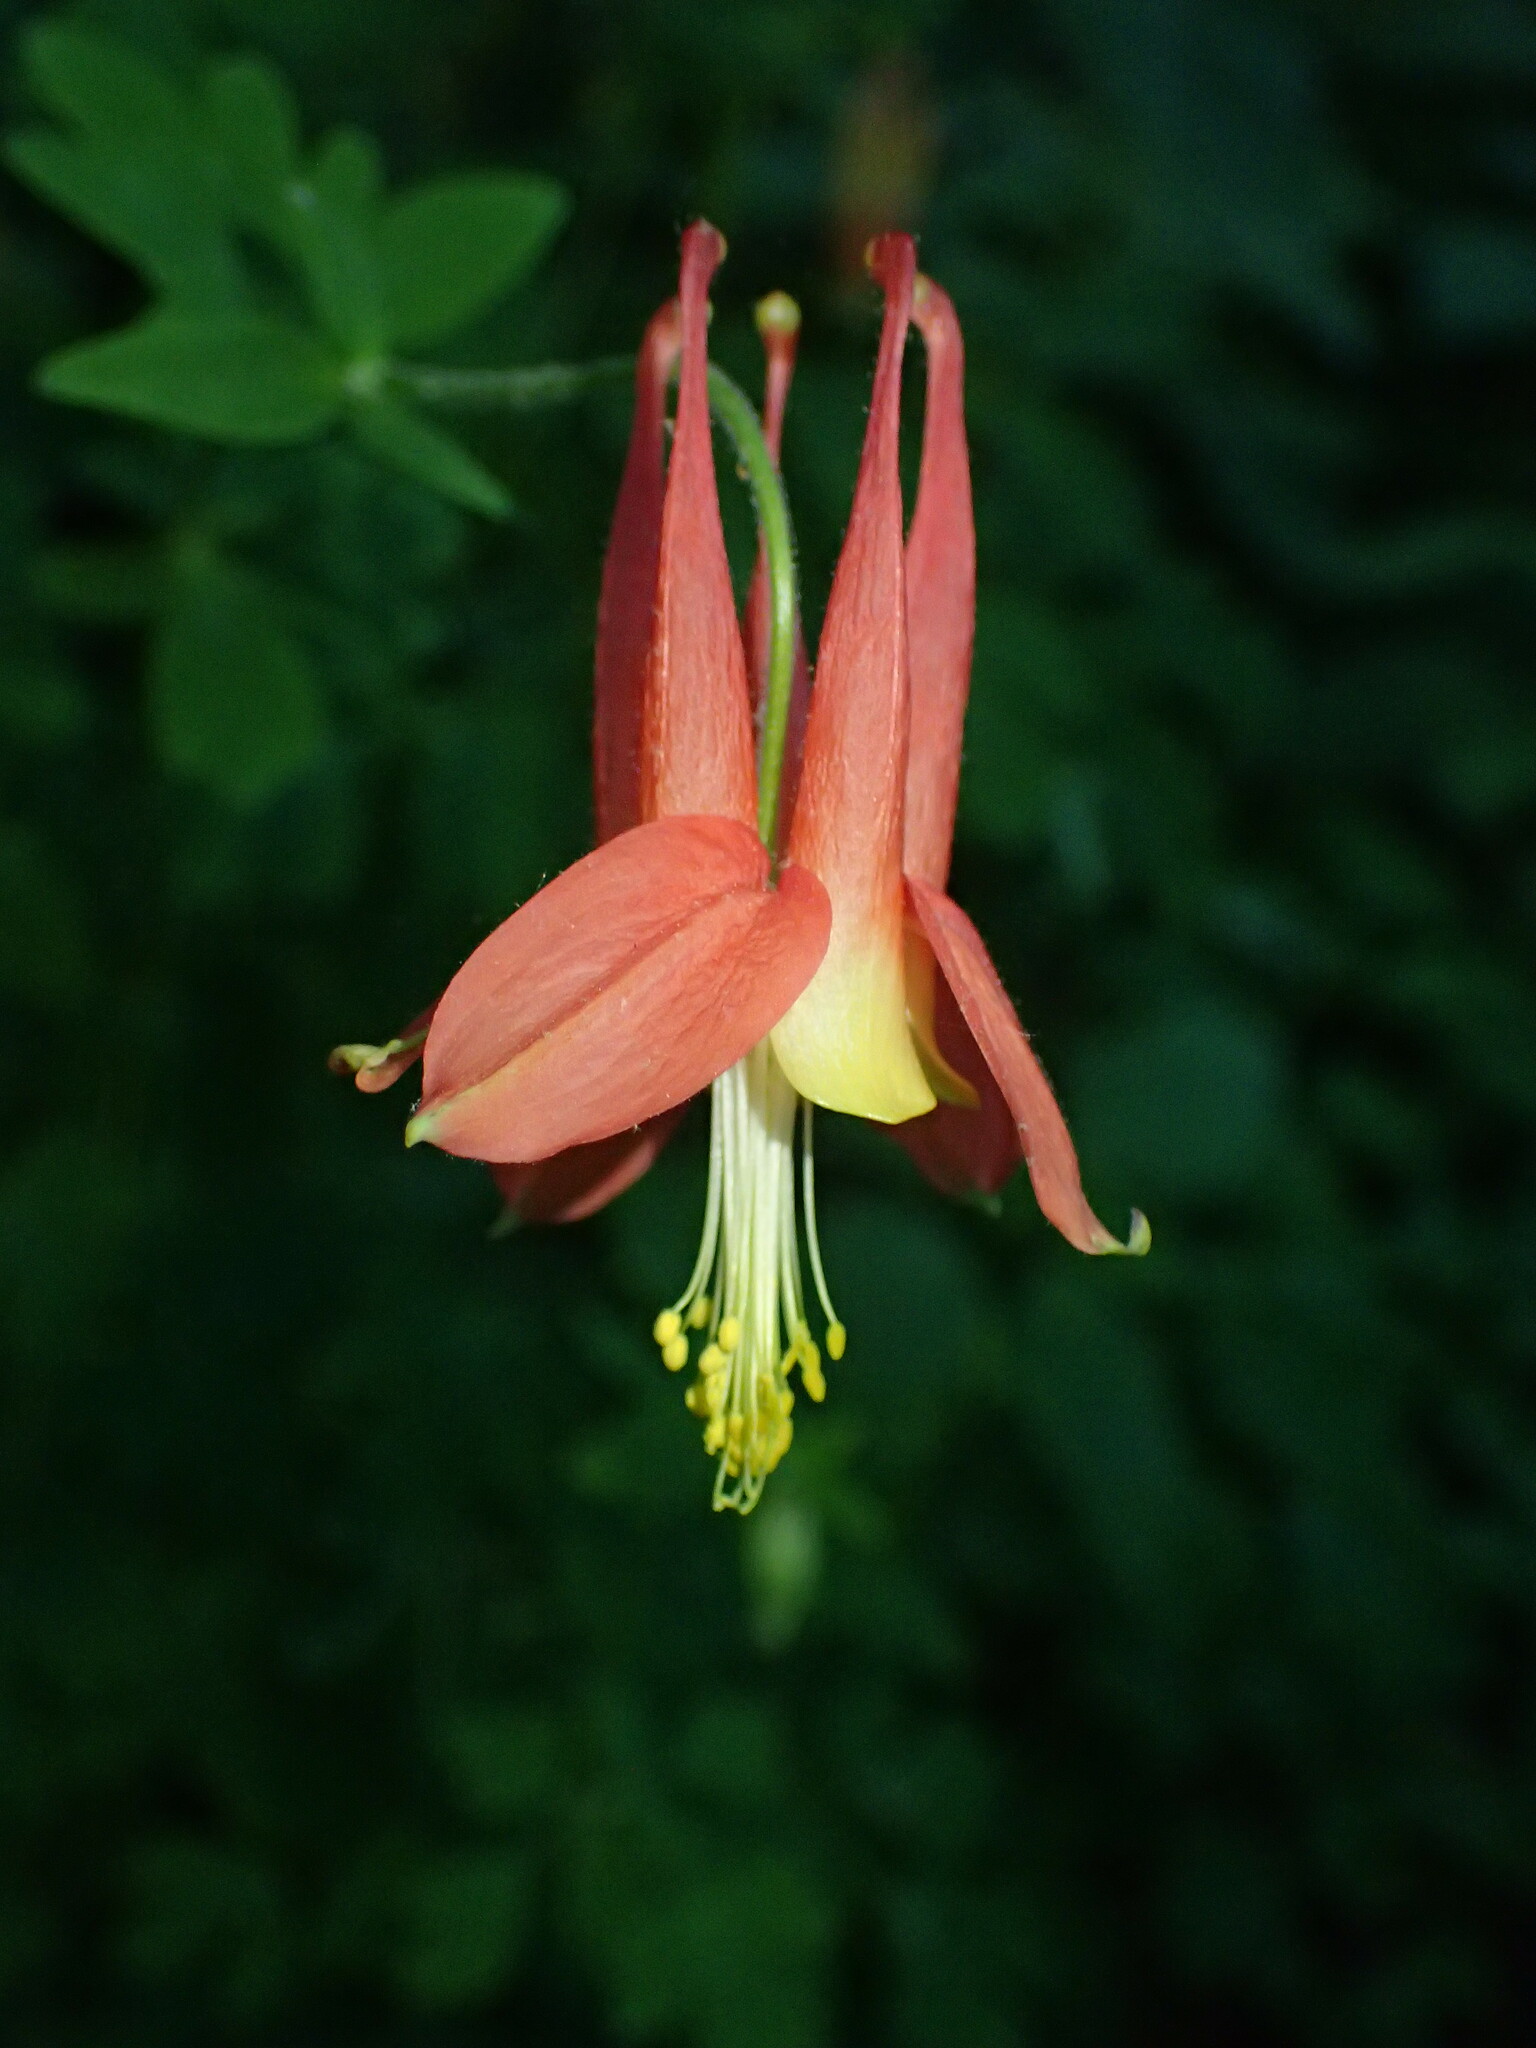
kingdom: Plantae
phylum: Tracheophyta
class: Magnoliopsida
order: Ranunculales
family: Ranunculaceae
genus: Aquilegia
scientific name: Aquilegia canadensis
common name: American columbine
